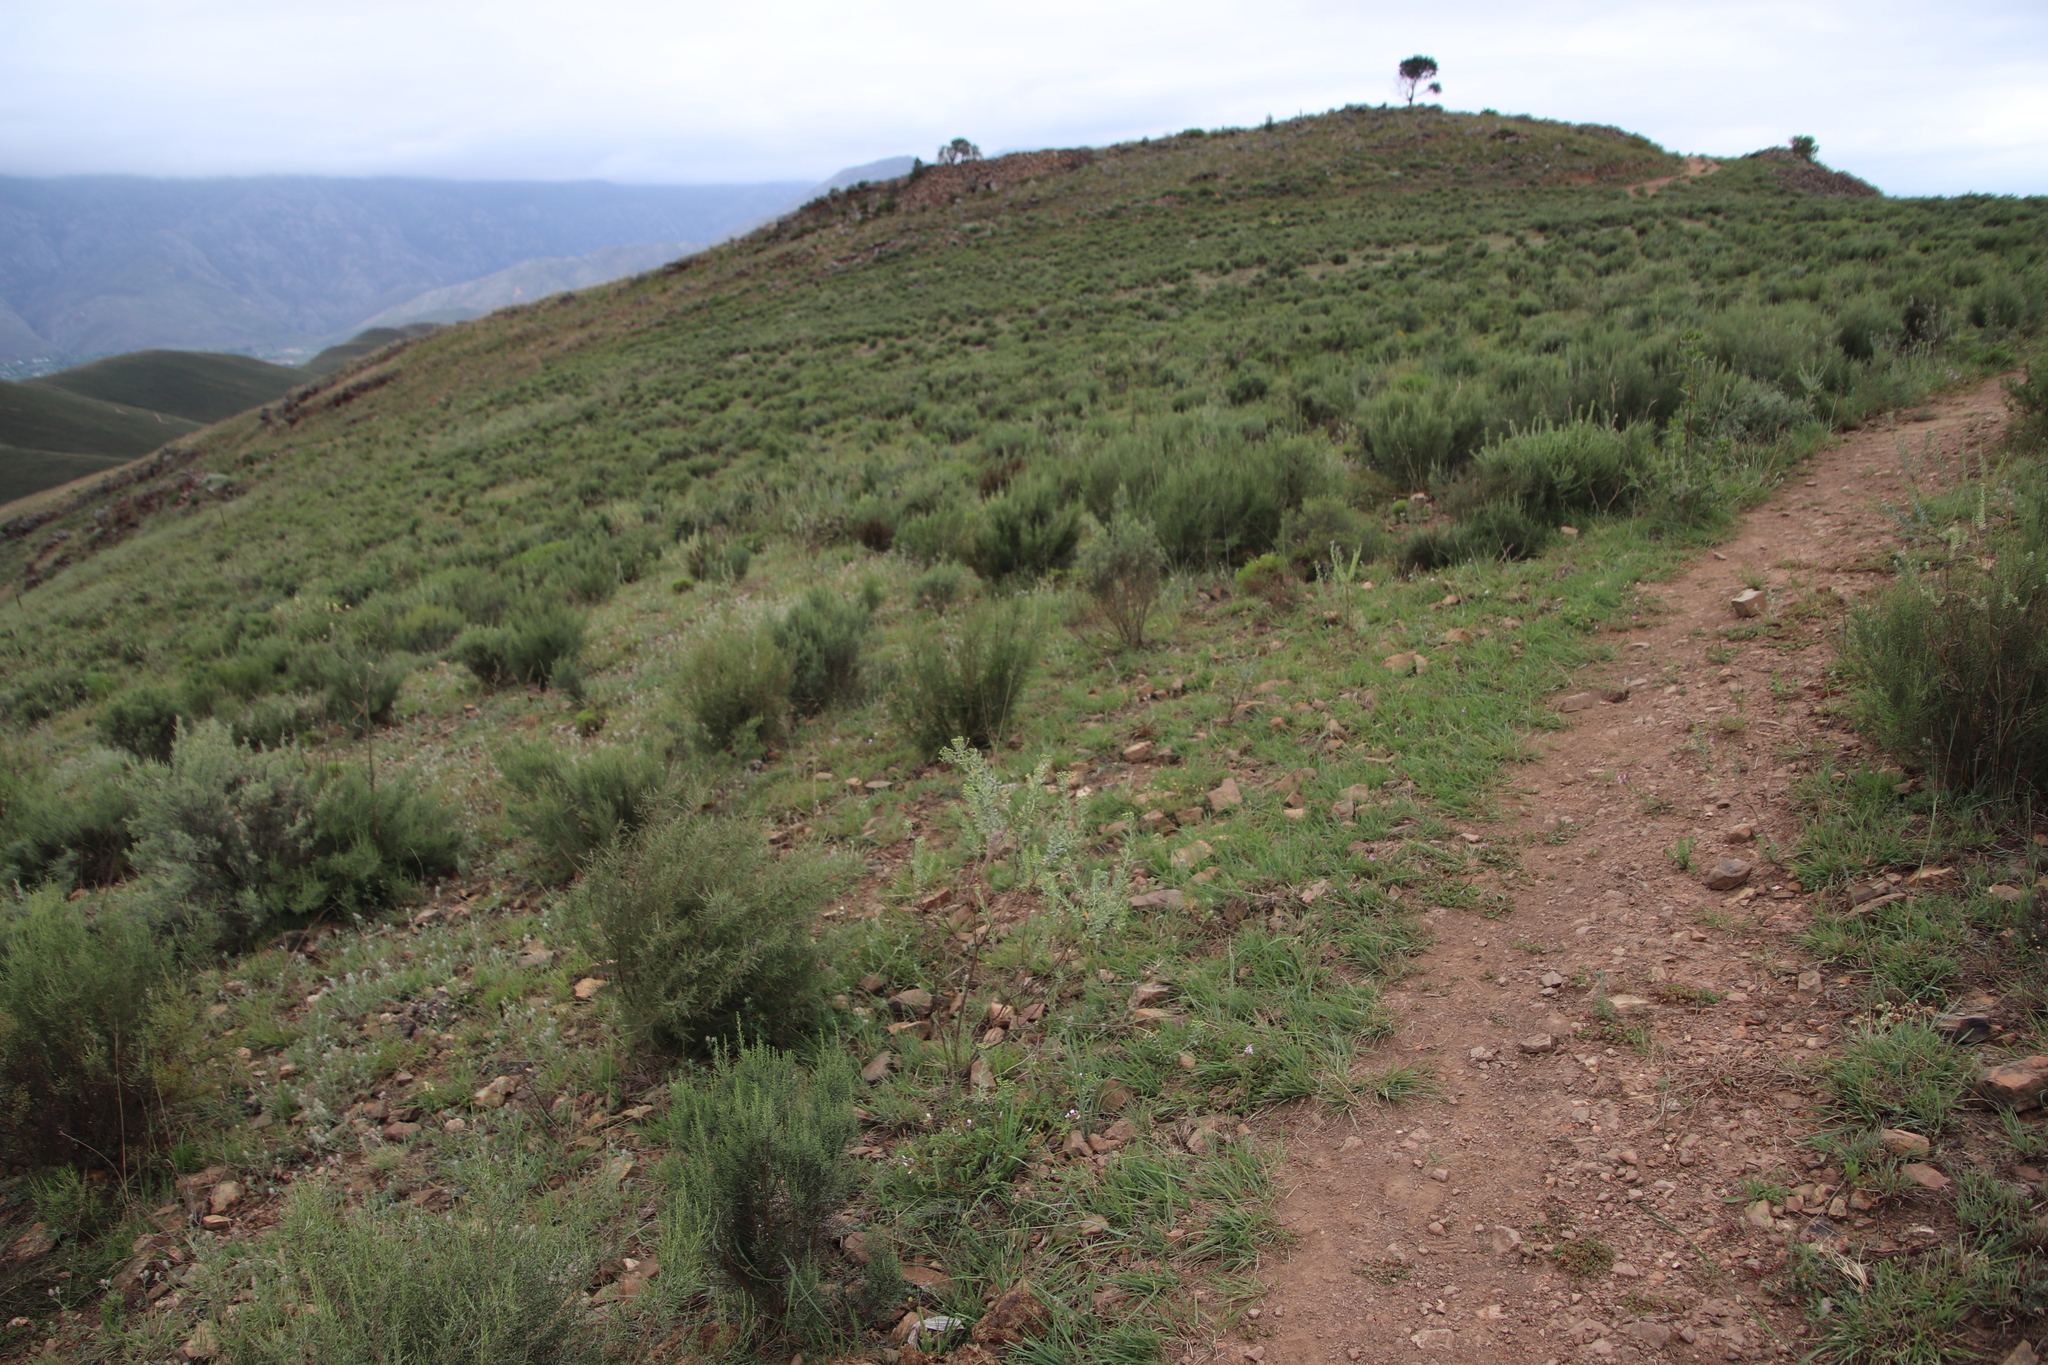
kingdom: Plantae
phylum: Tracheophyta
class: Magnoliopsida
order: Asterales
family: Asteraceae
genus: Dicerothamnus
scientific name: Dicerothamnus rhinocerotis
